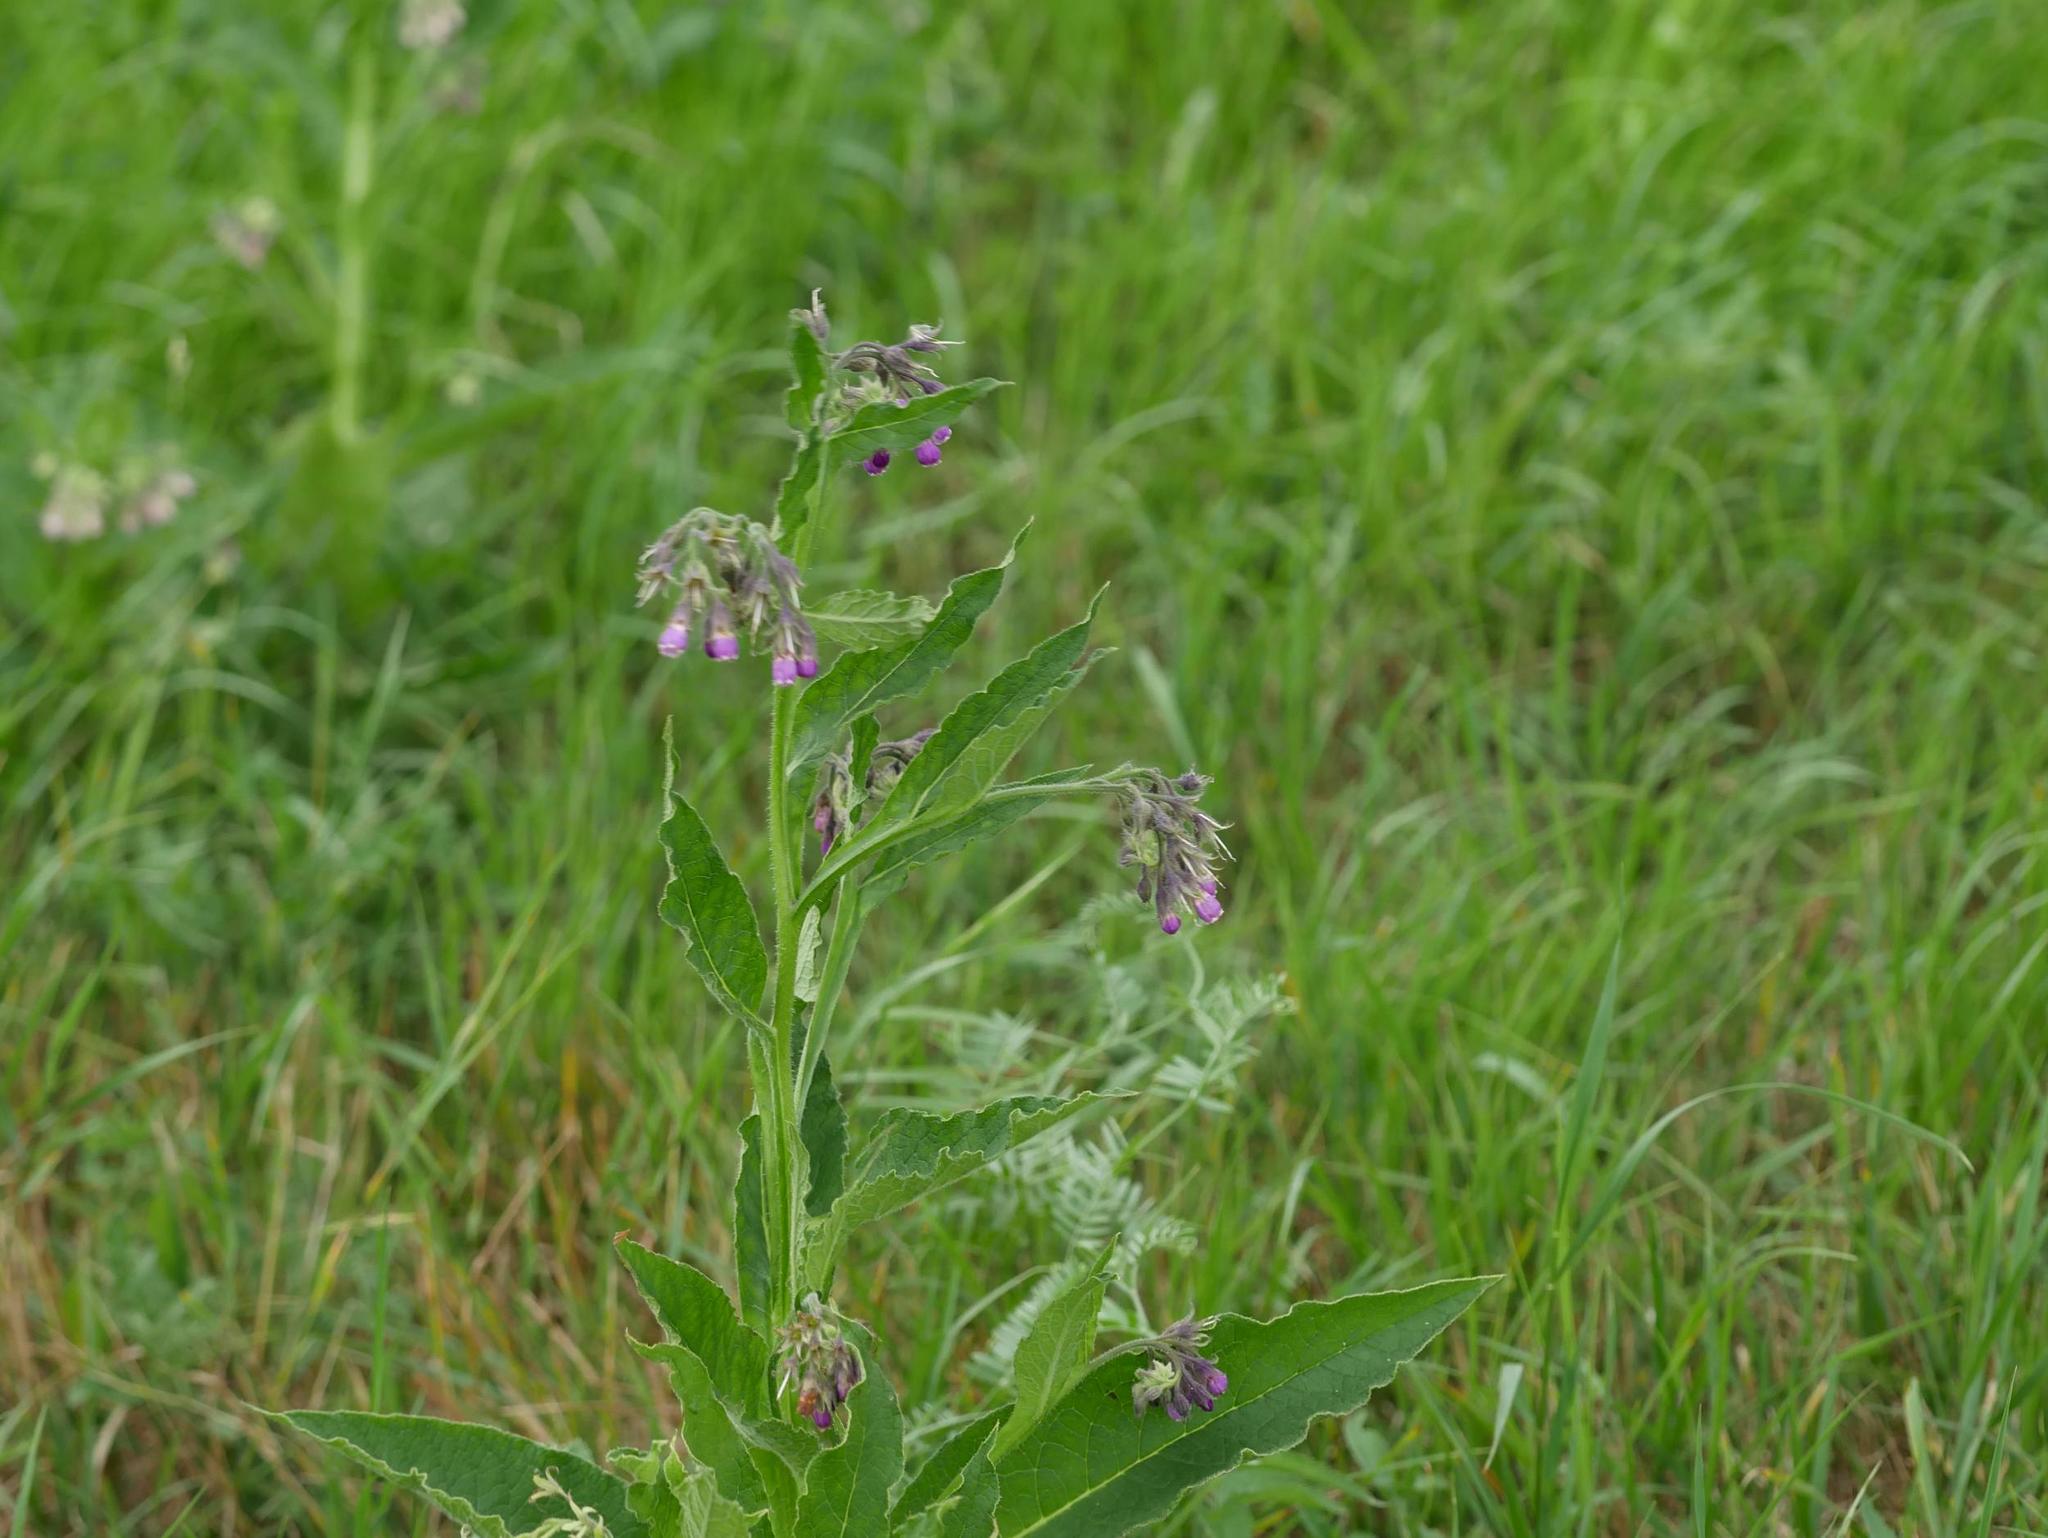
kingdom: Plantae
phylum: Tracheophyta
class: Magnoliopsida
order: Boraginales
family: Boraginaceae
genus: Symphytum
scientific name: Symphytum officinale
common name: Common comfrey
